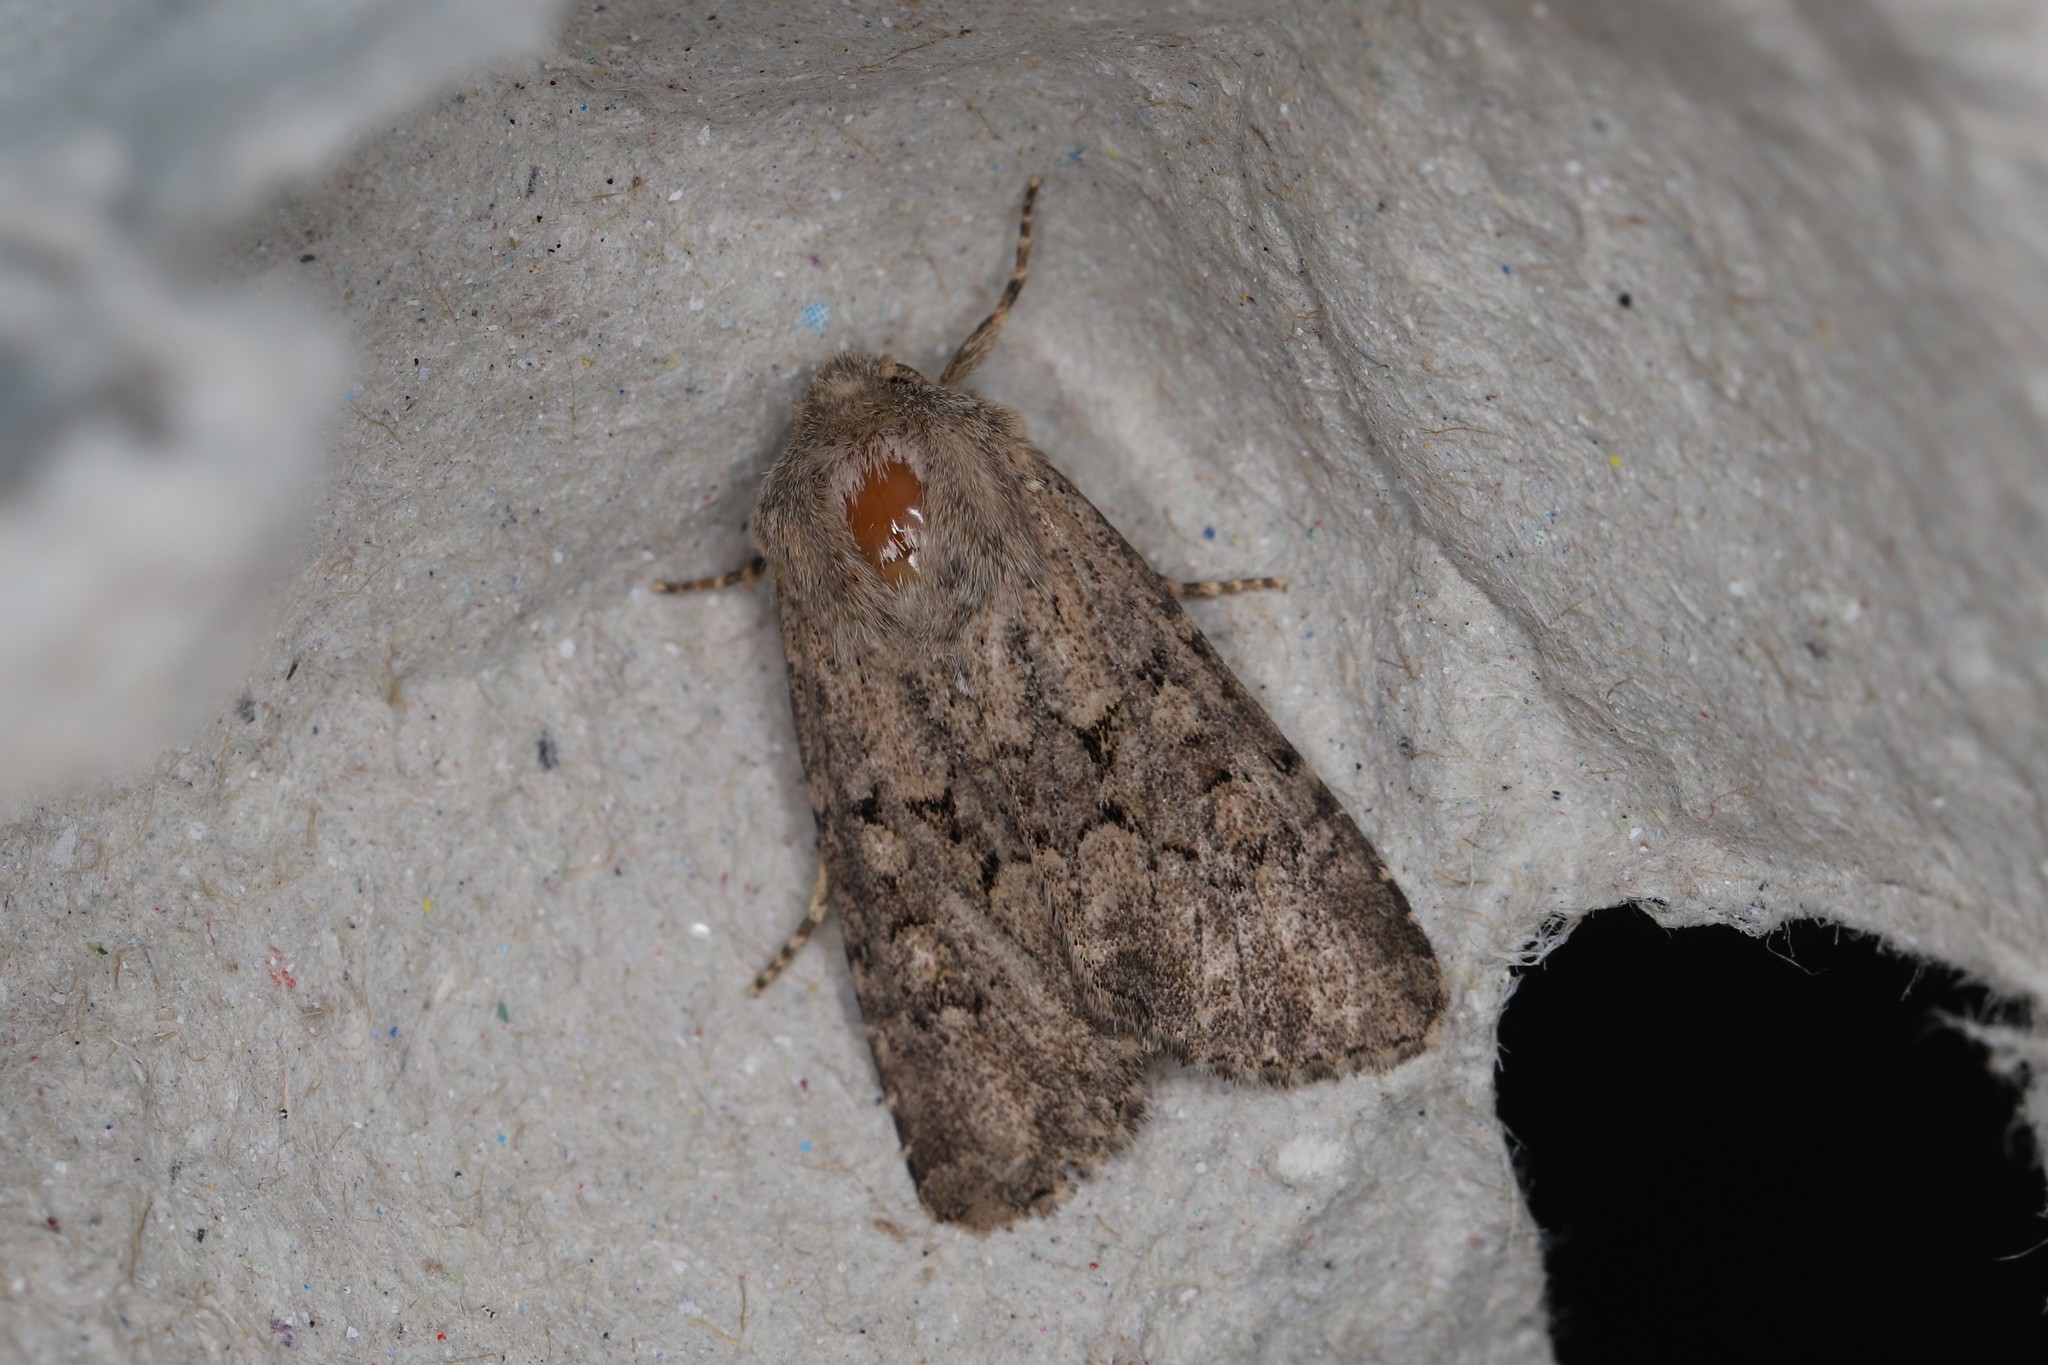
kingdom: Animalia
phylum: Arthropoda
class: Insecta
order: Lepidoptera
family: Noctuidae
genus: Luperina
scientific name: Luperina testacea
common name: Flounced rustic
